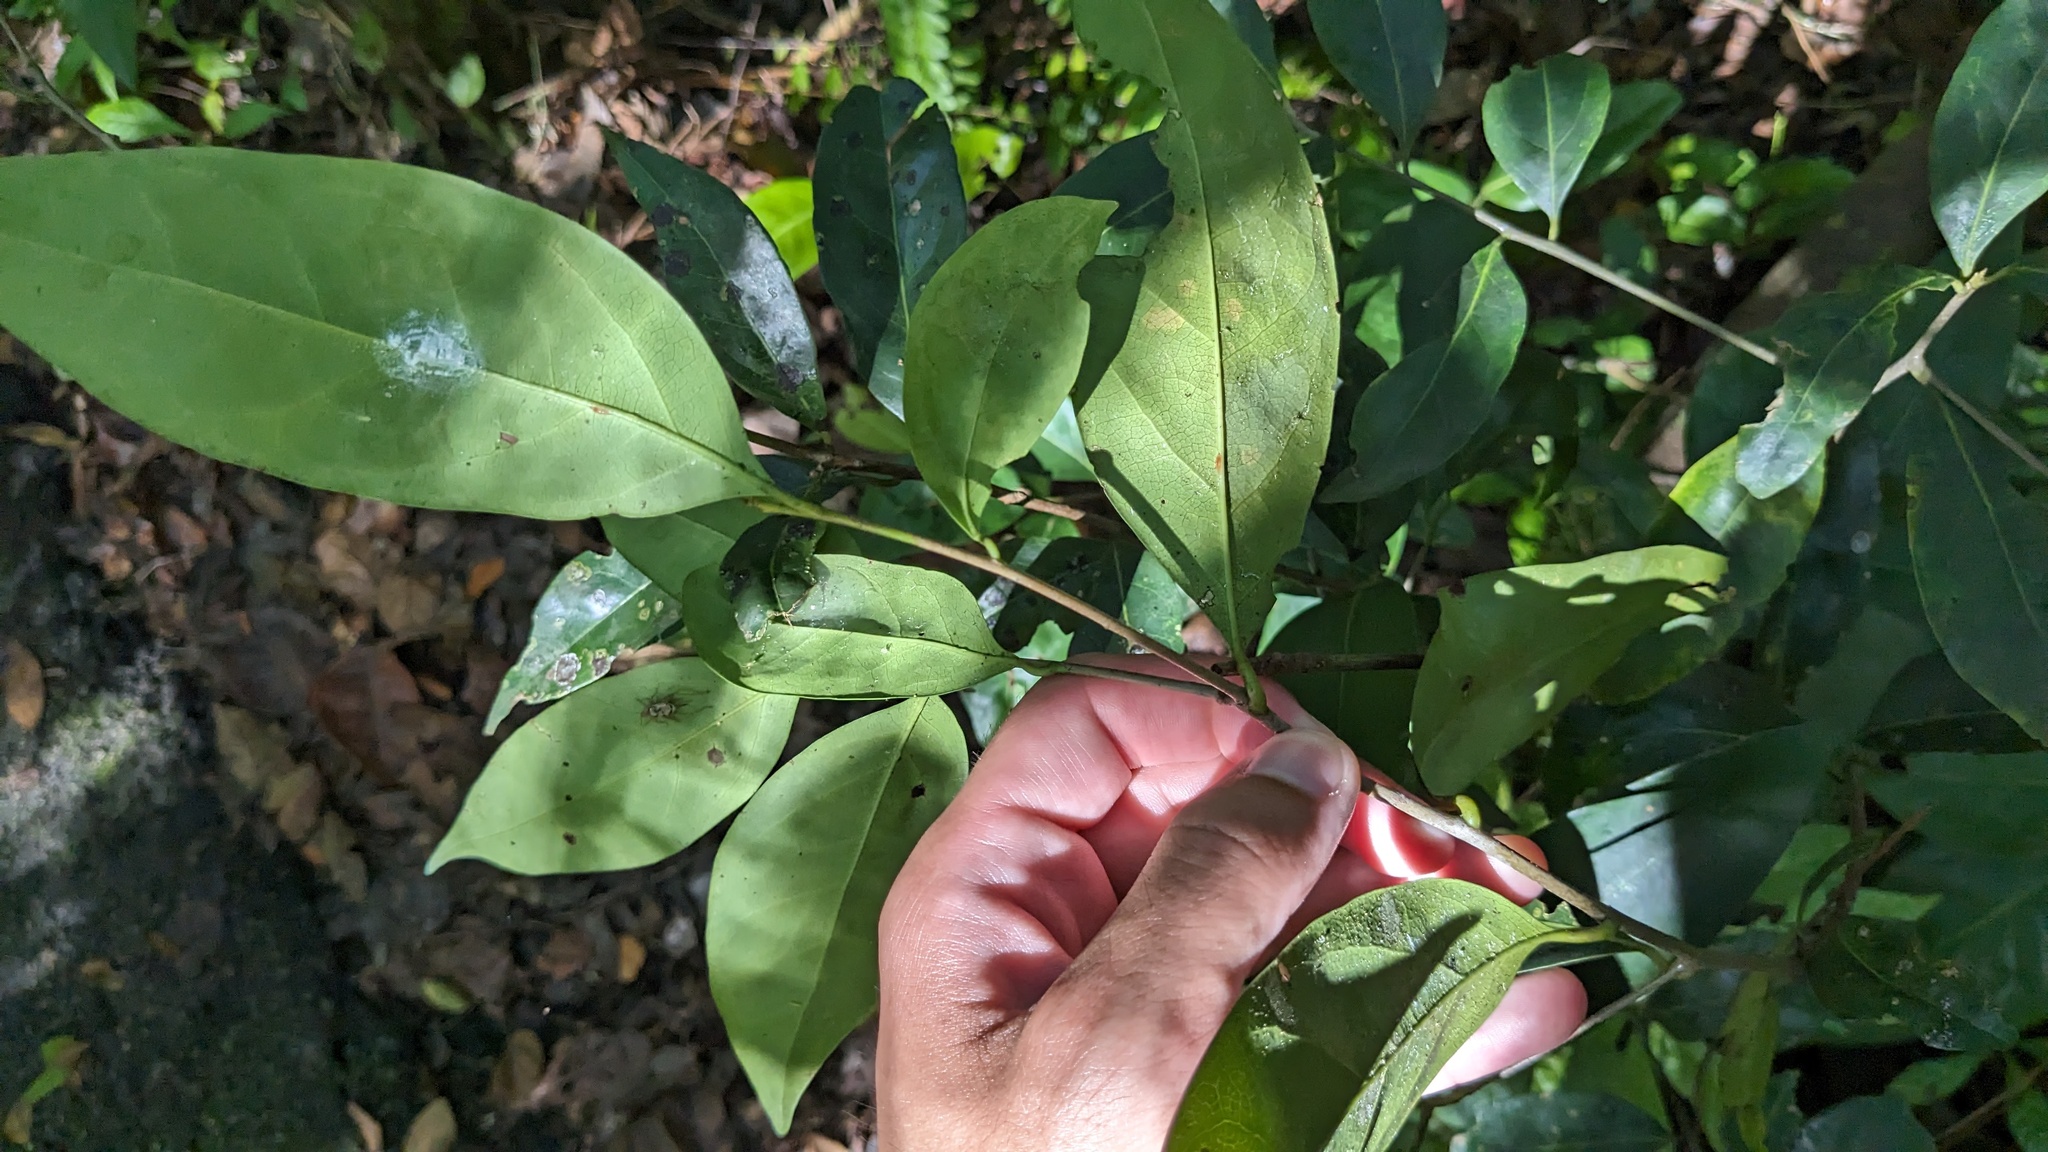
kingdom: Plantae
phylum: Tracheophyta
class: Magnoliopsida
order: Laurales
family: Lauraceae
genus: Damburneya
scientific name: Damburneya
